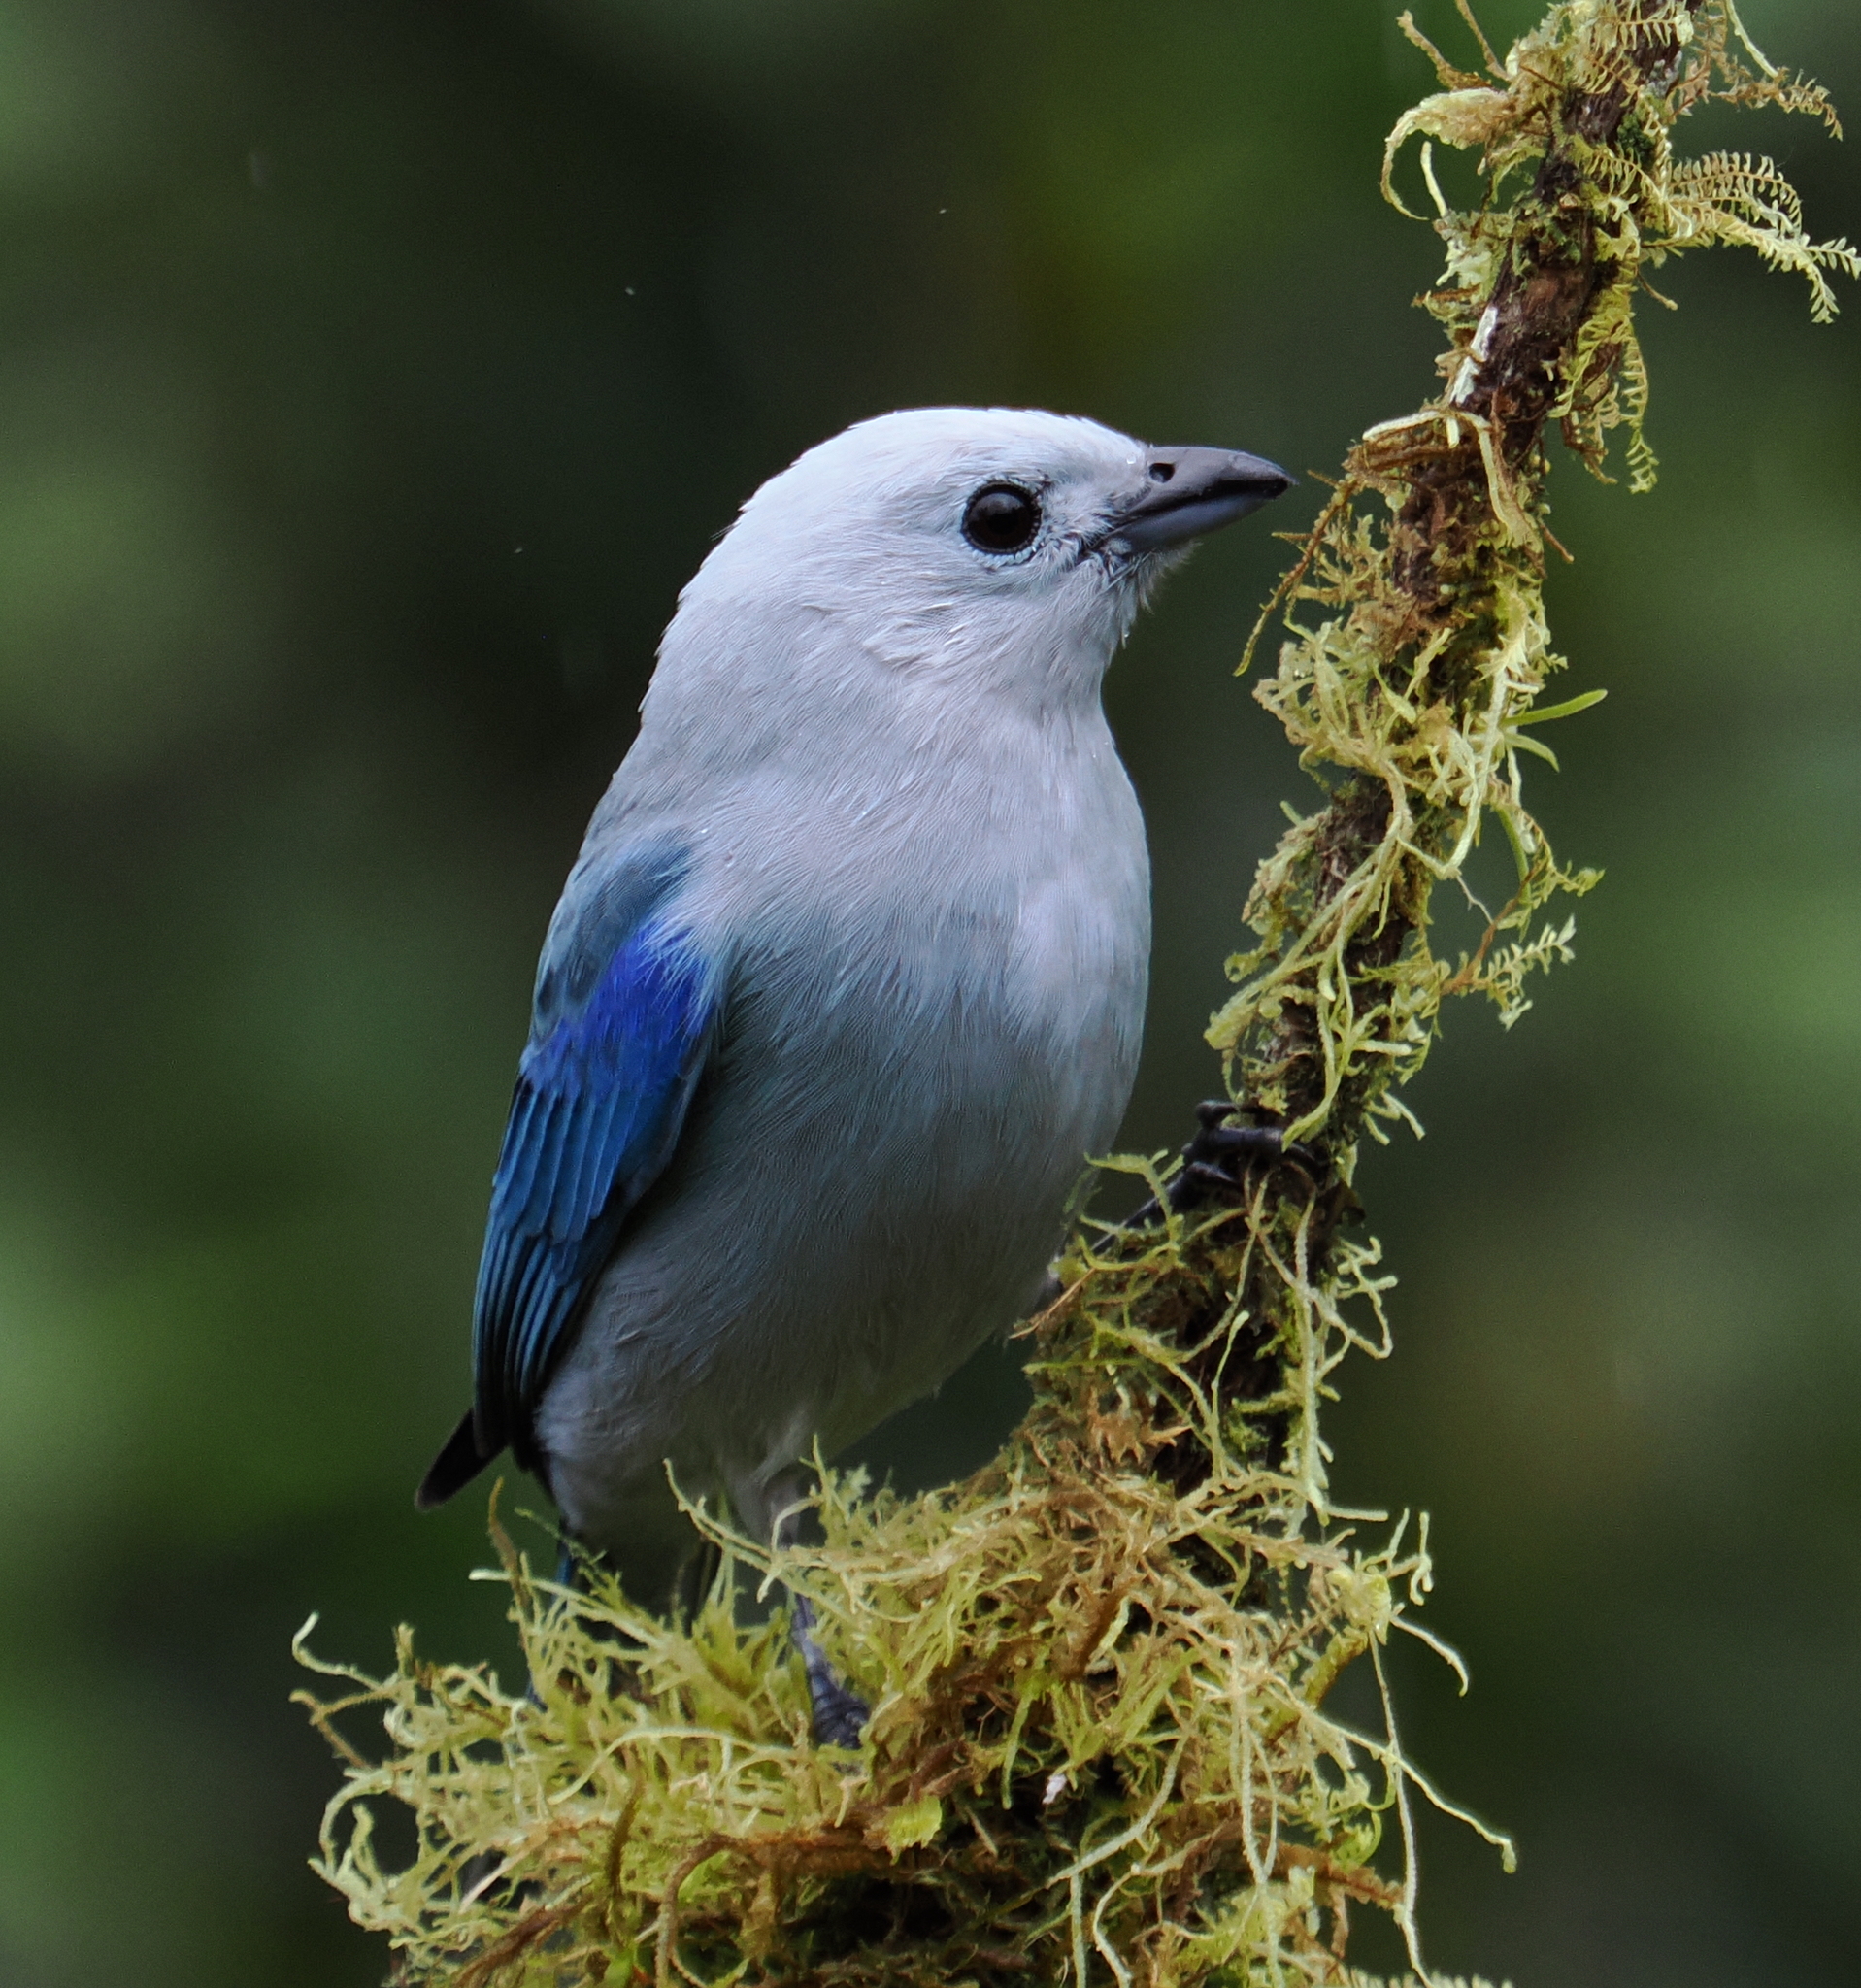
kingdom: Animalia
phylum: Chordata
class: Aves
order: Passeriformes
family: Thraupidae
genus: Thraupis
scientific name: Thraupis episcopus
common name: Blue-grey tanager
